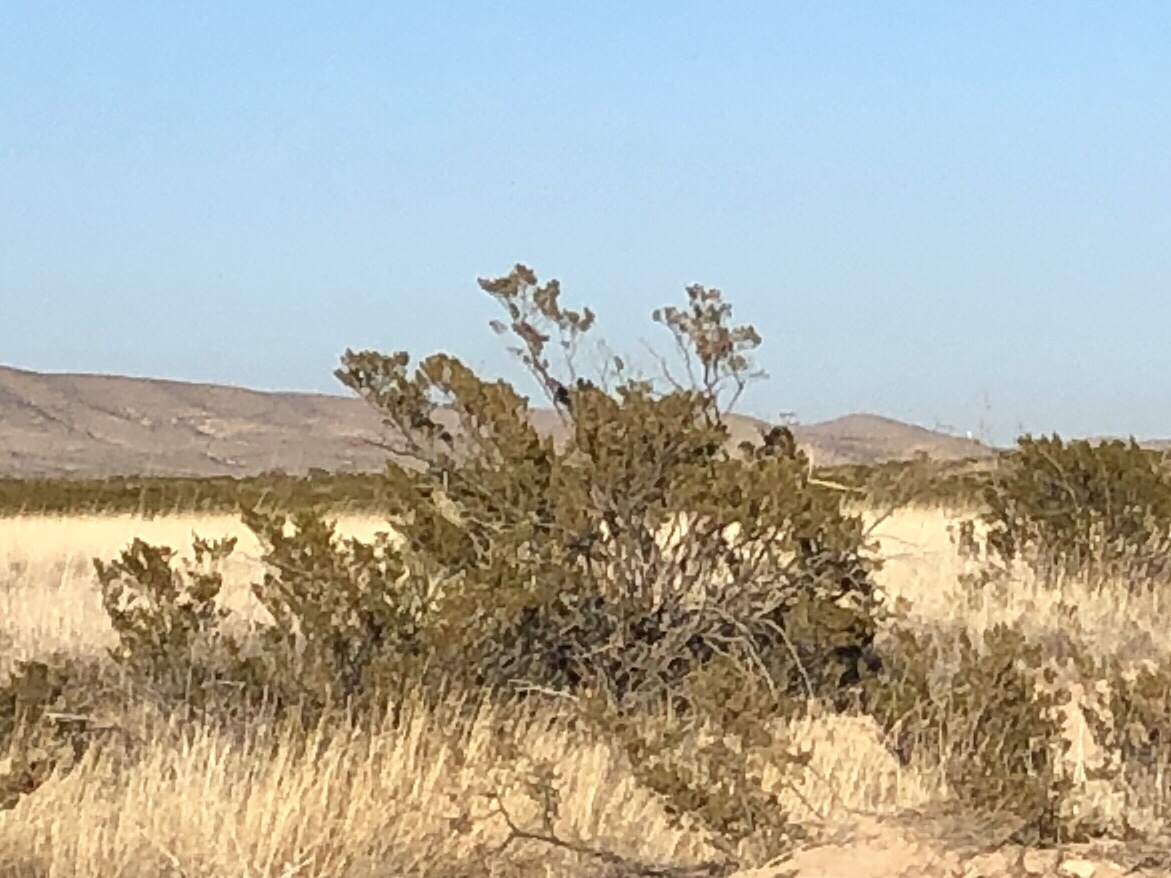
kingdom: Plantae
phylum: Tracheophyta
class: Magnoliopsida
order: Zygophyllales
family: Zygophyllaceae
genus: Larrea
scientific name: Larrea tridentata
